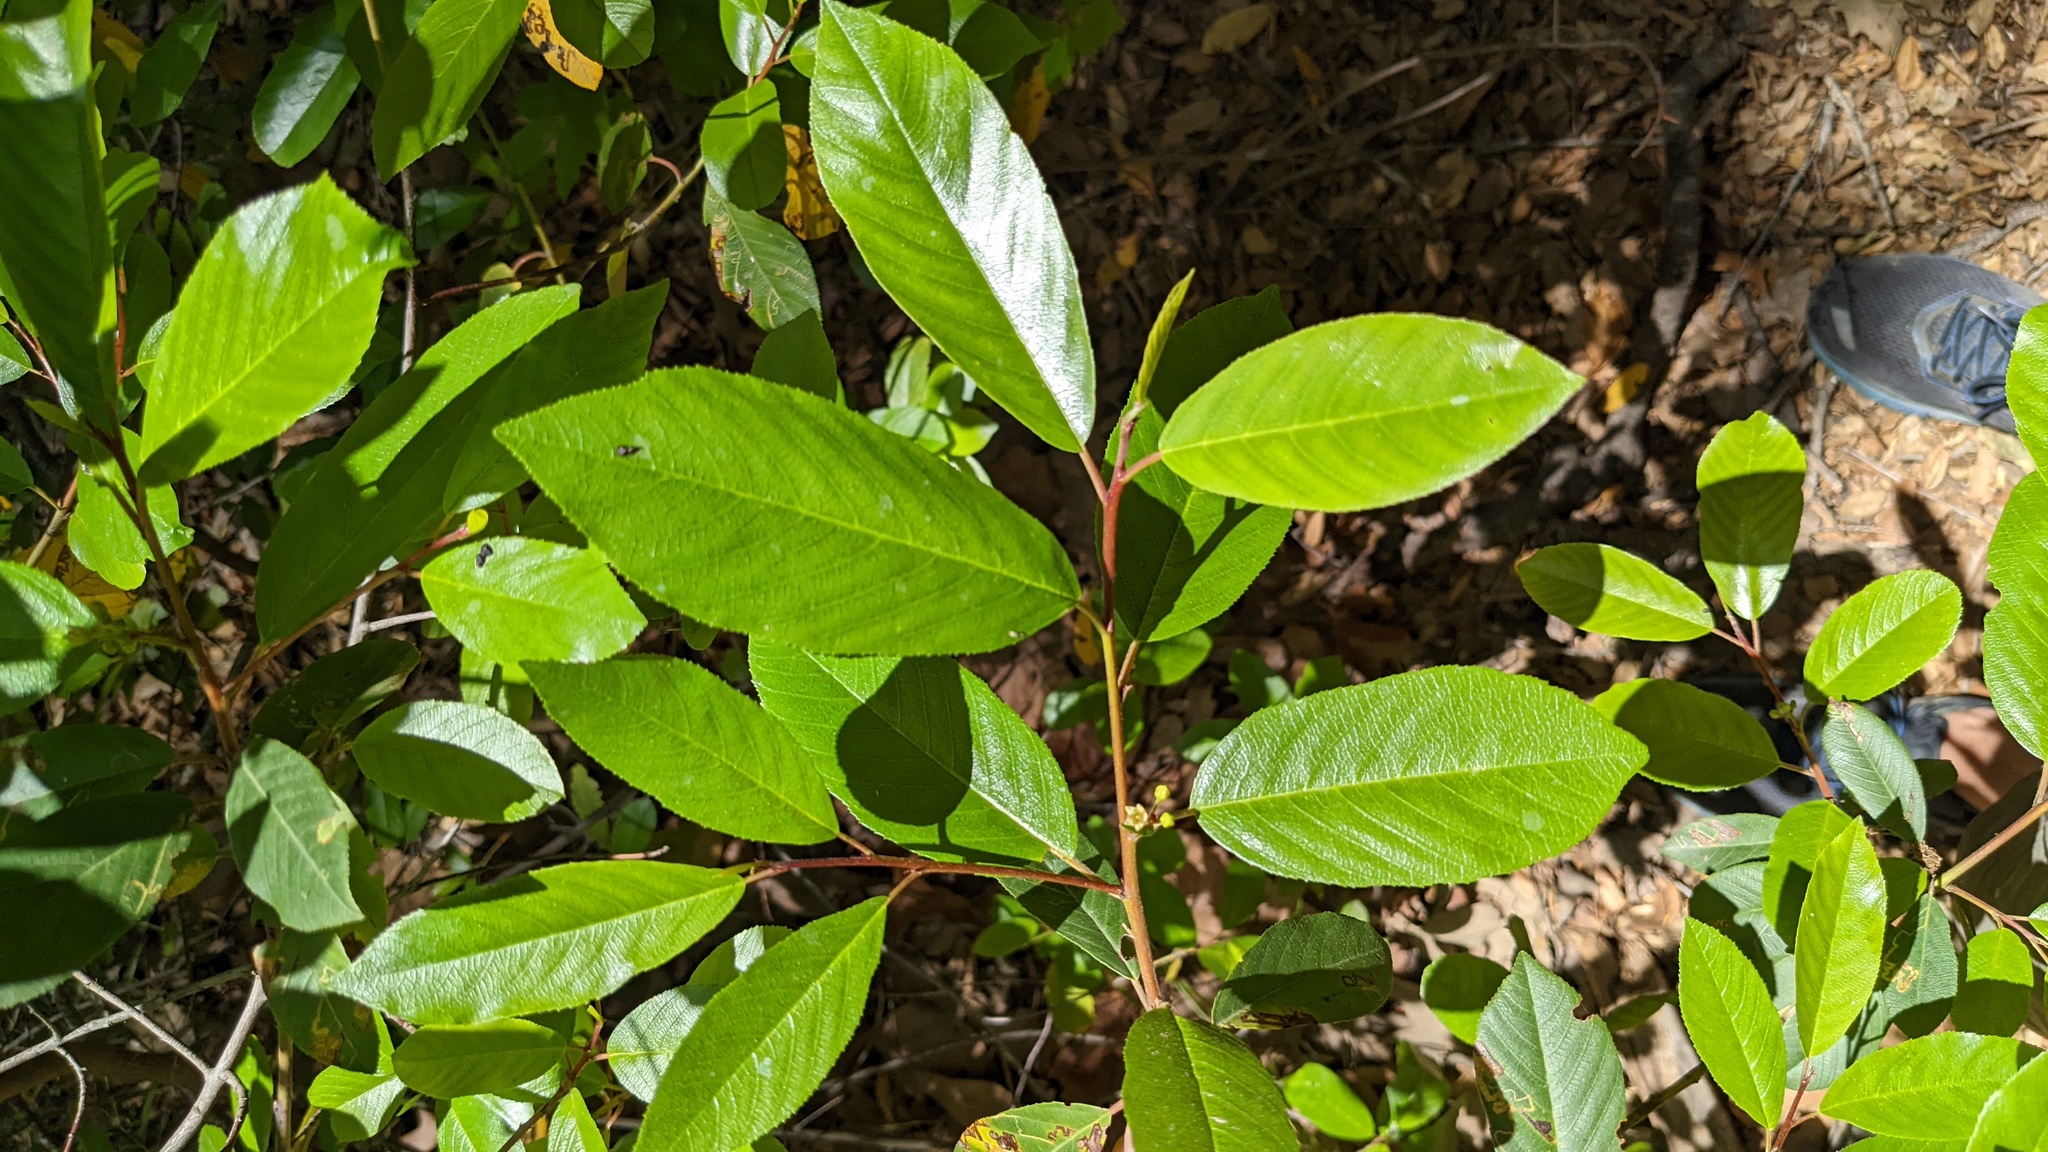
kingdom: Plantae
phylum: Tracheophyta
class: Magnoliopsida
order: Rosales
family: Rhamnaceae
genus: Frangula
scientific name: Frangula californica
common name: California buckthorn
